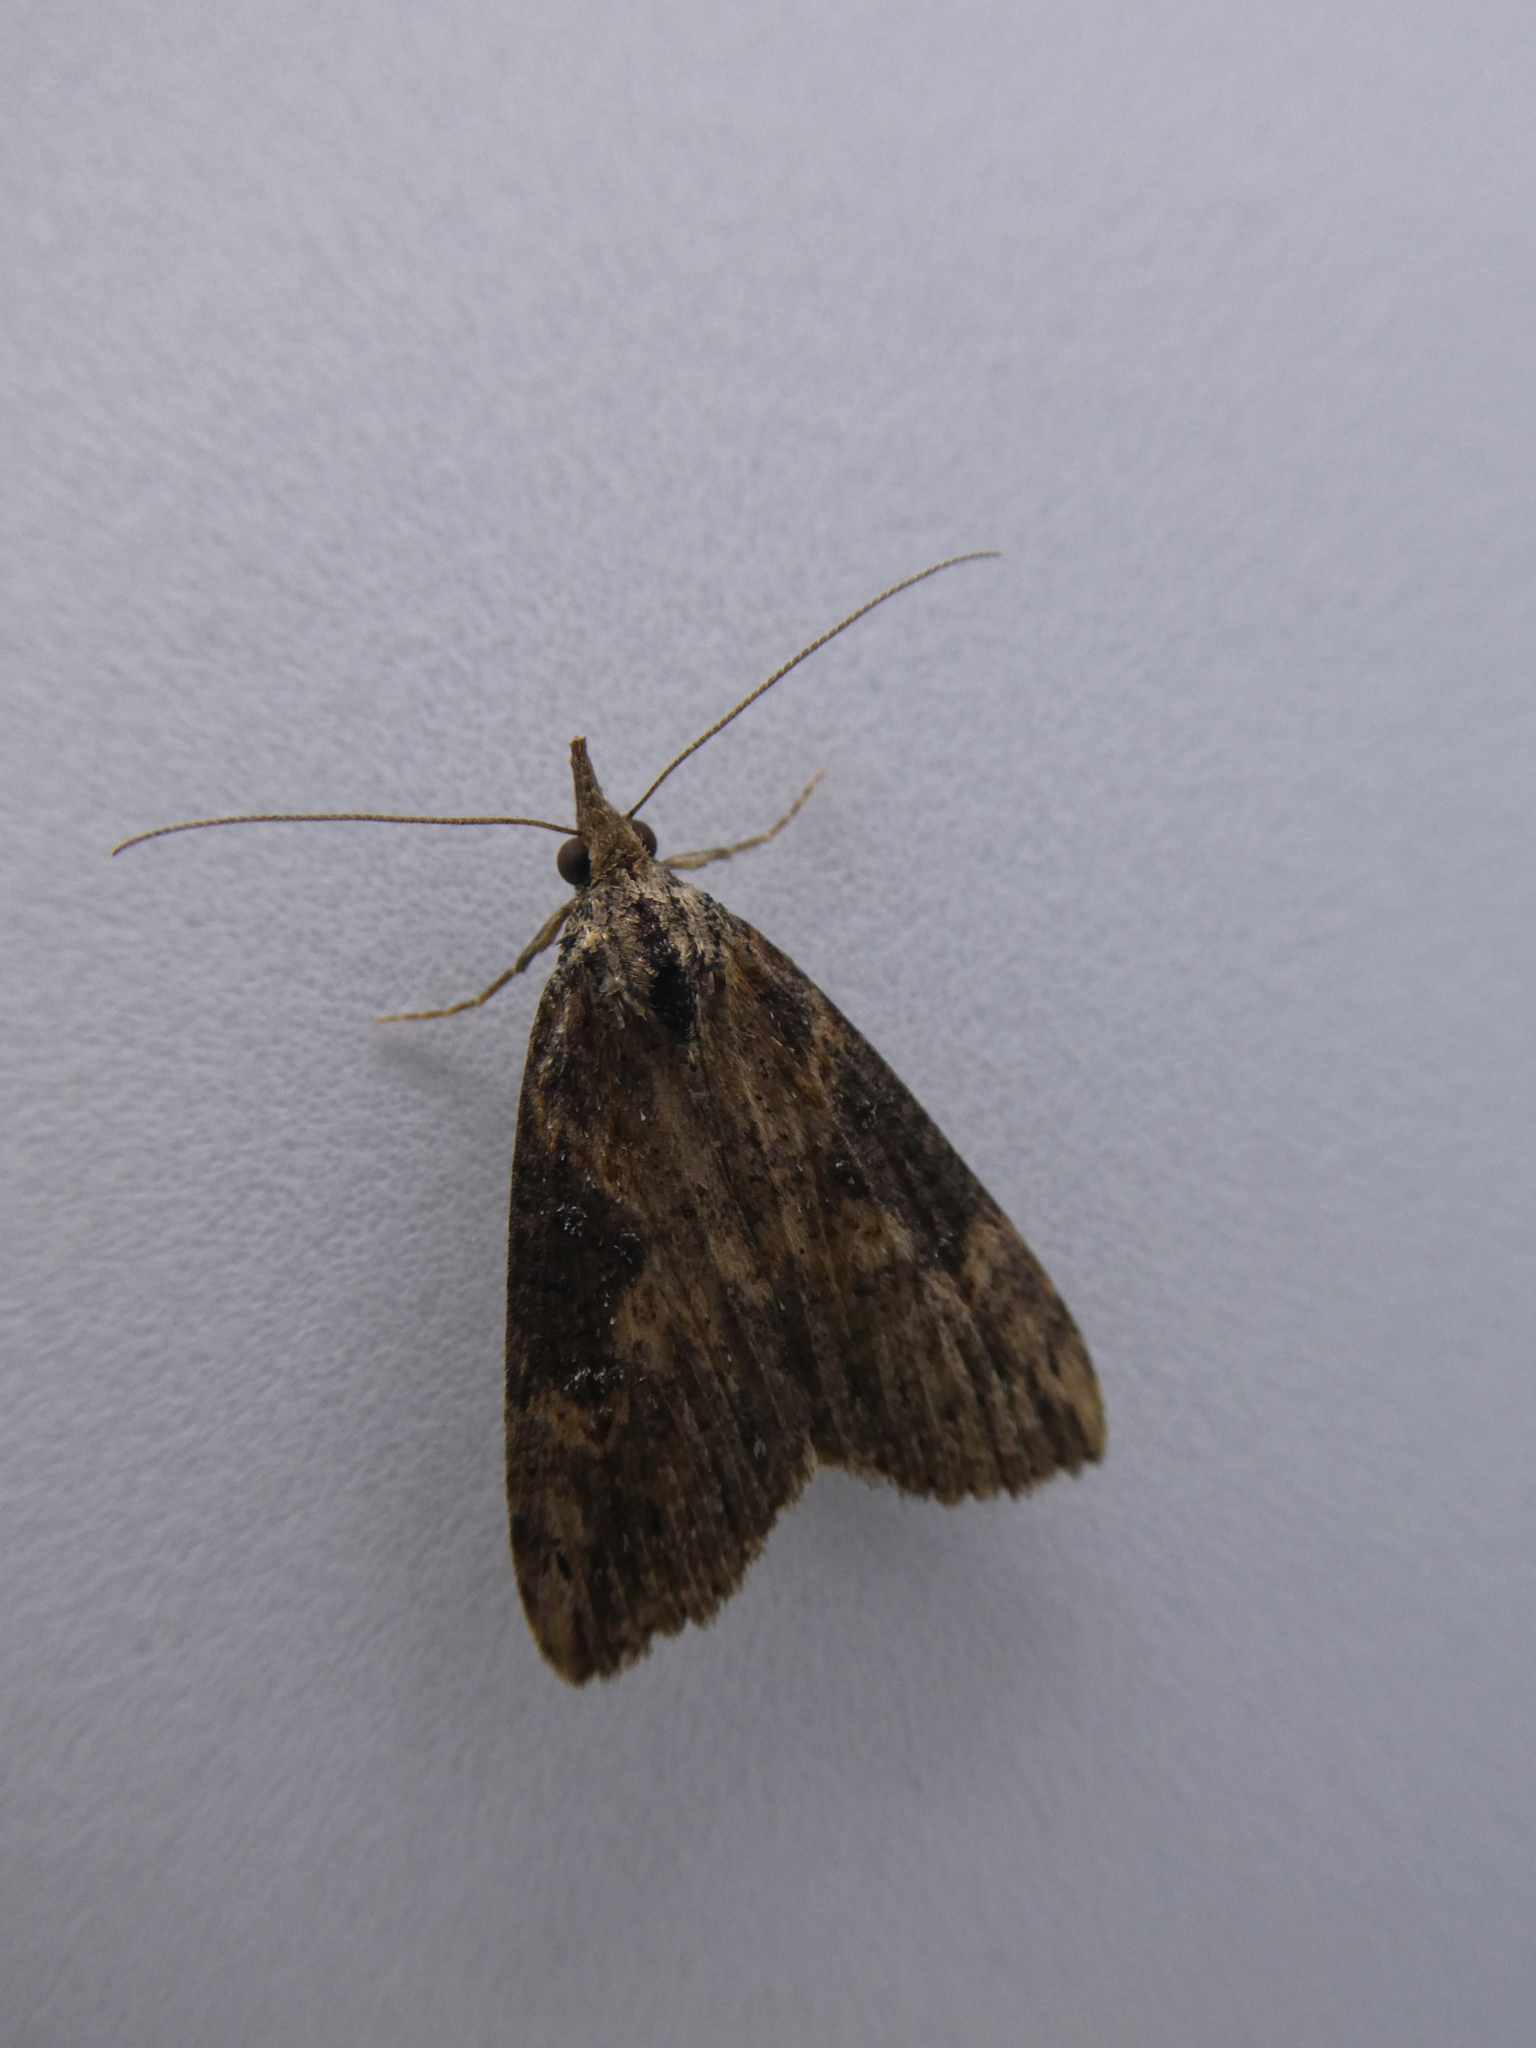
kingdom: Animalia
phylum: Arthropoda
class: Insecta
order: Lepidoptera
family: Erebidae
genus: Hypena
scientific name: Hypena humuli
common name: Hop vine snout
